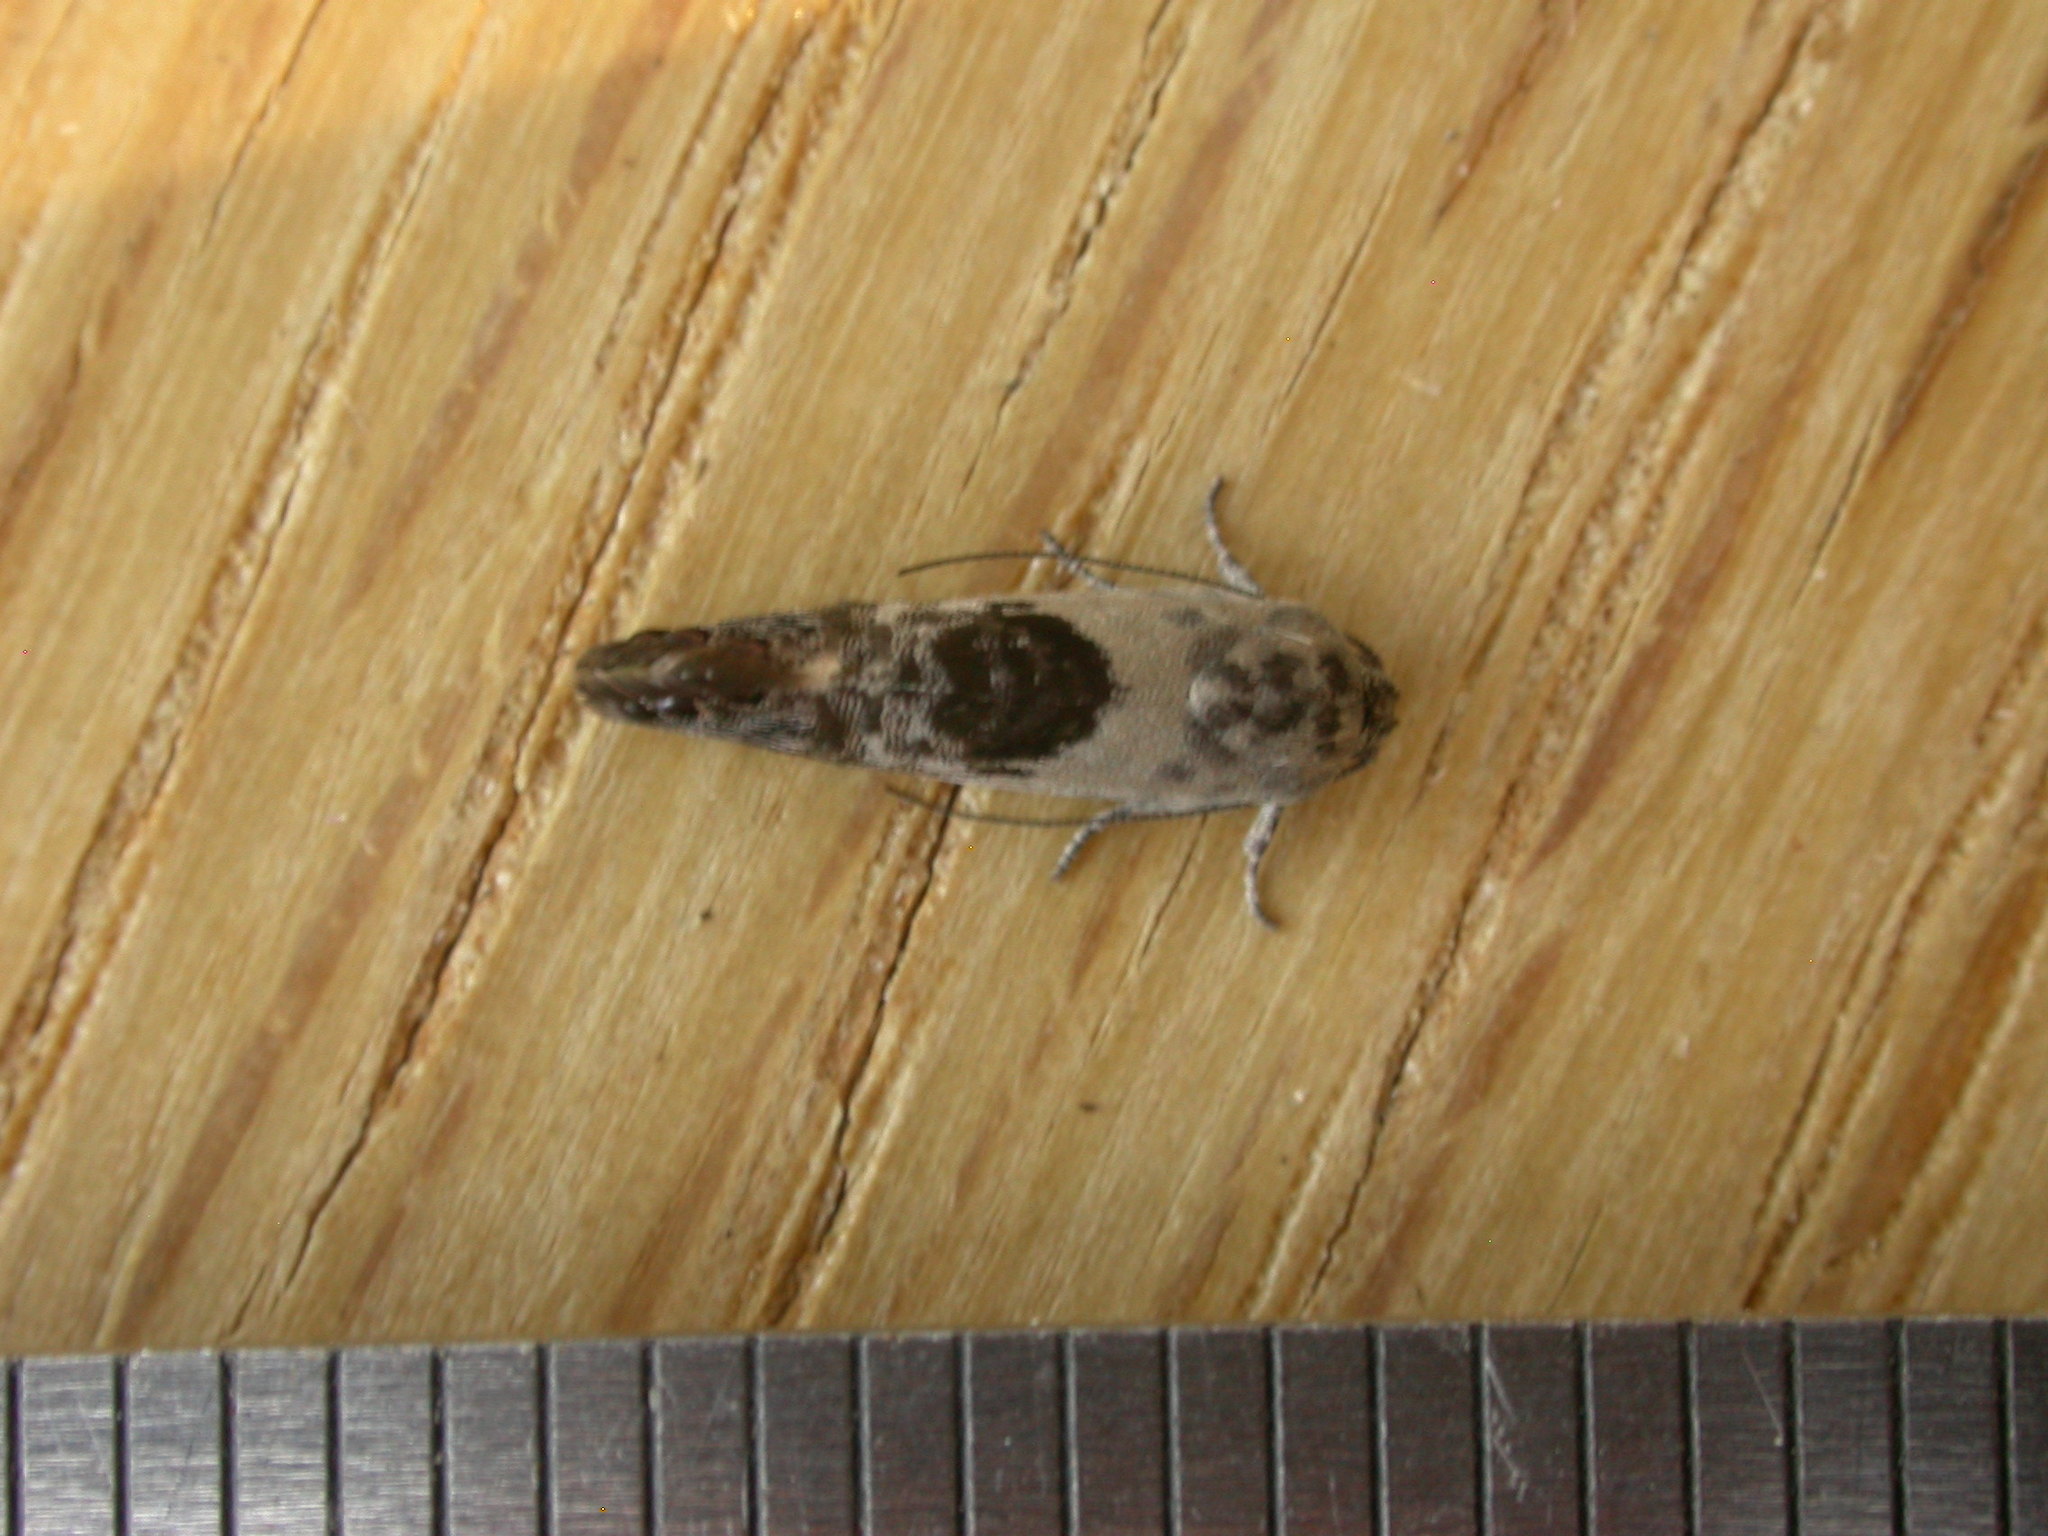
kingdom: Animalia
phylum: Arthropoda
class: Insecta
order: Lepidoptera
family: Depressariidae
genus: Eupselia
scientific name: Eupselia carpocapsella
